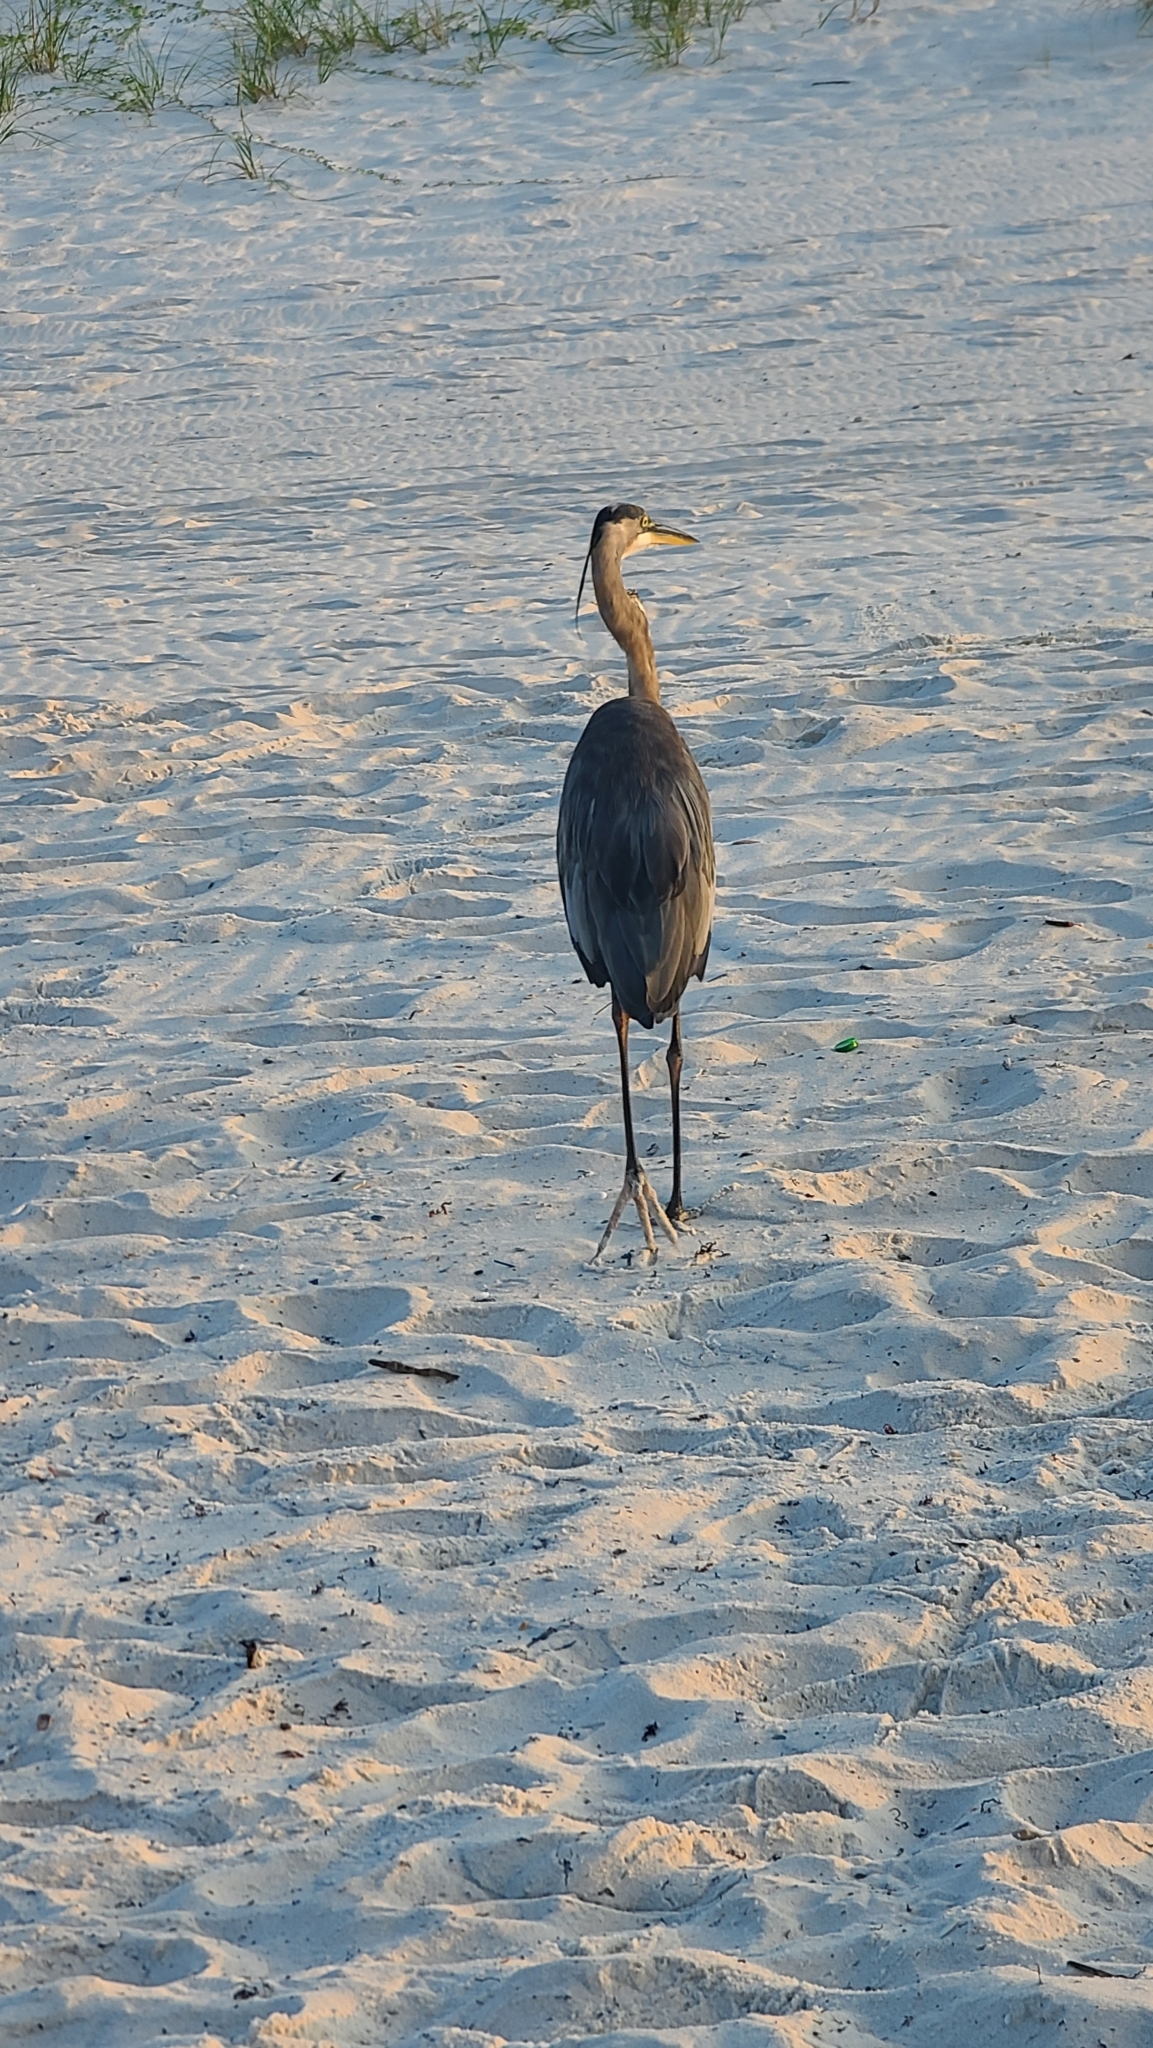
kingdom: Animalia
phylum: Chordata
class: Aves
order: Pelecaniformes
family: Ardeidae
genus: Ardea
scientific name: Ardea herodias
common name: Great blue heron
